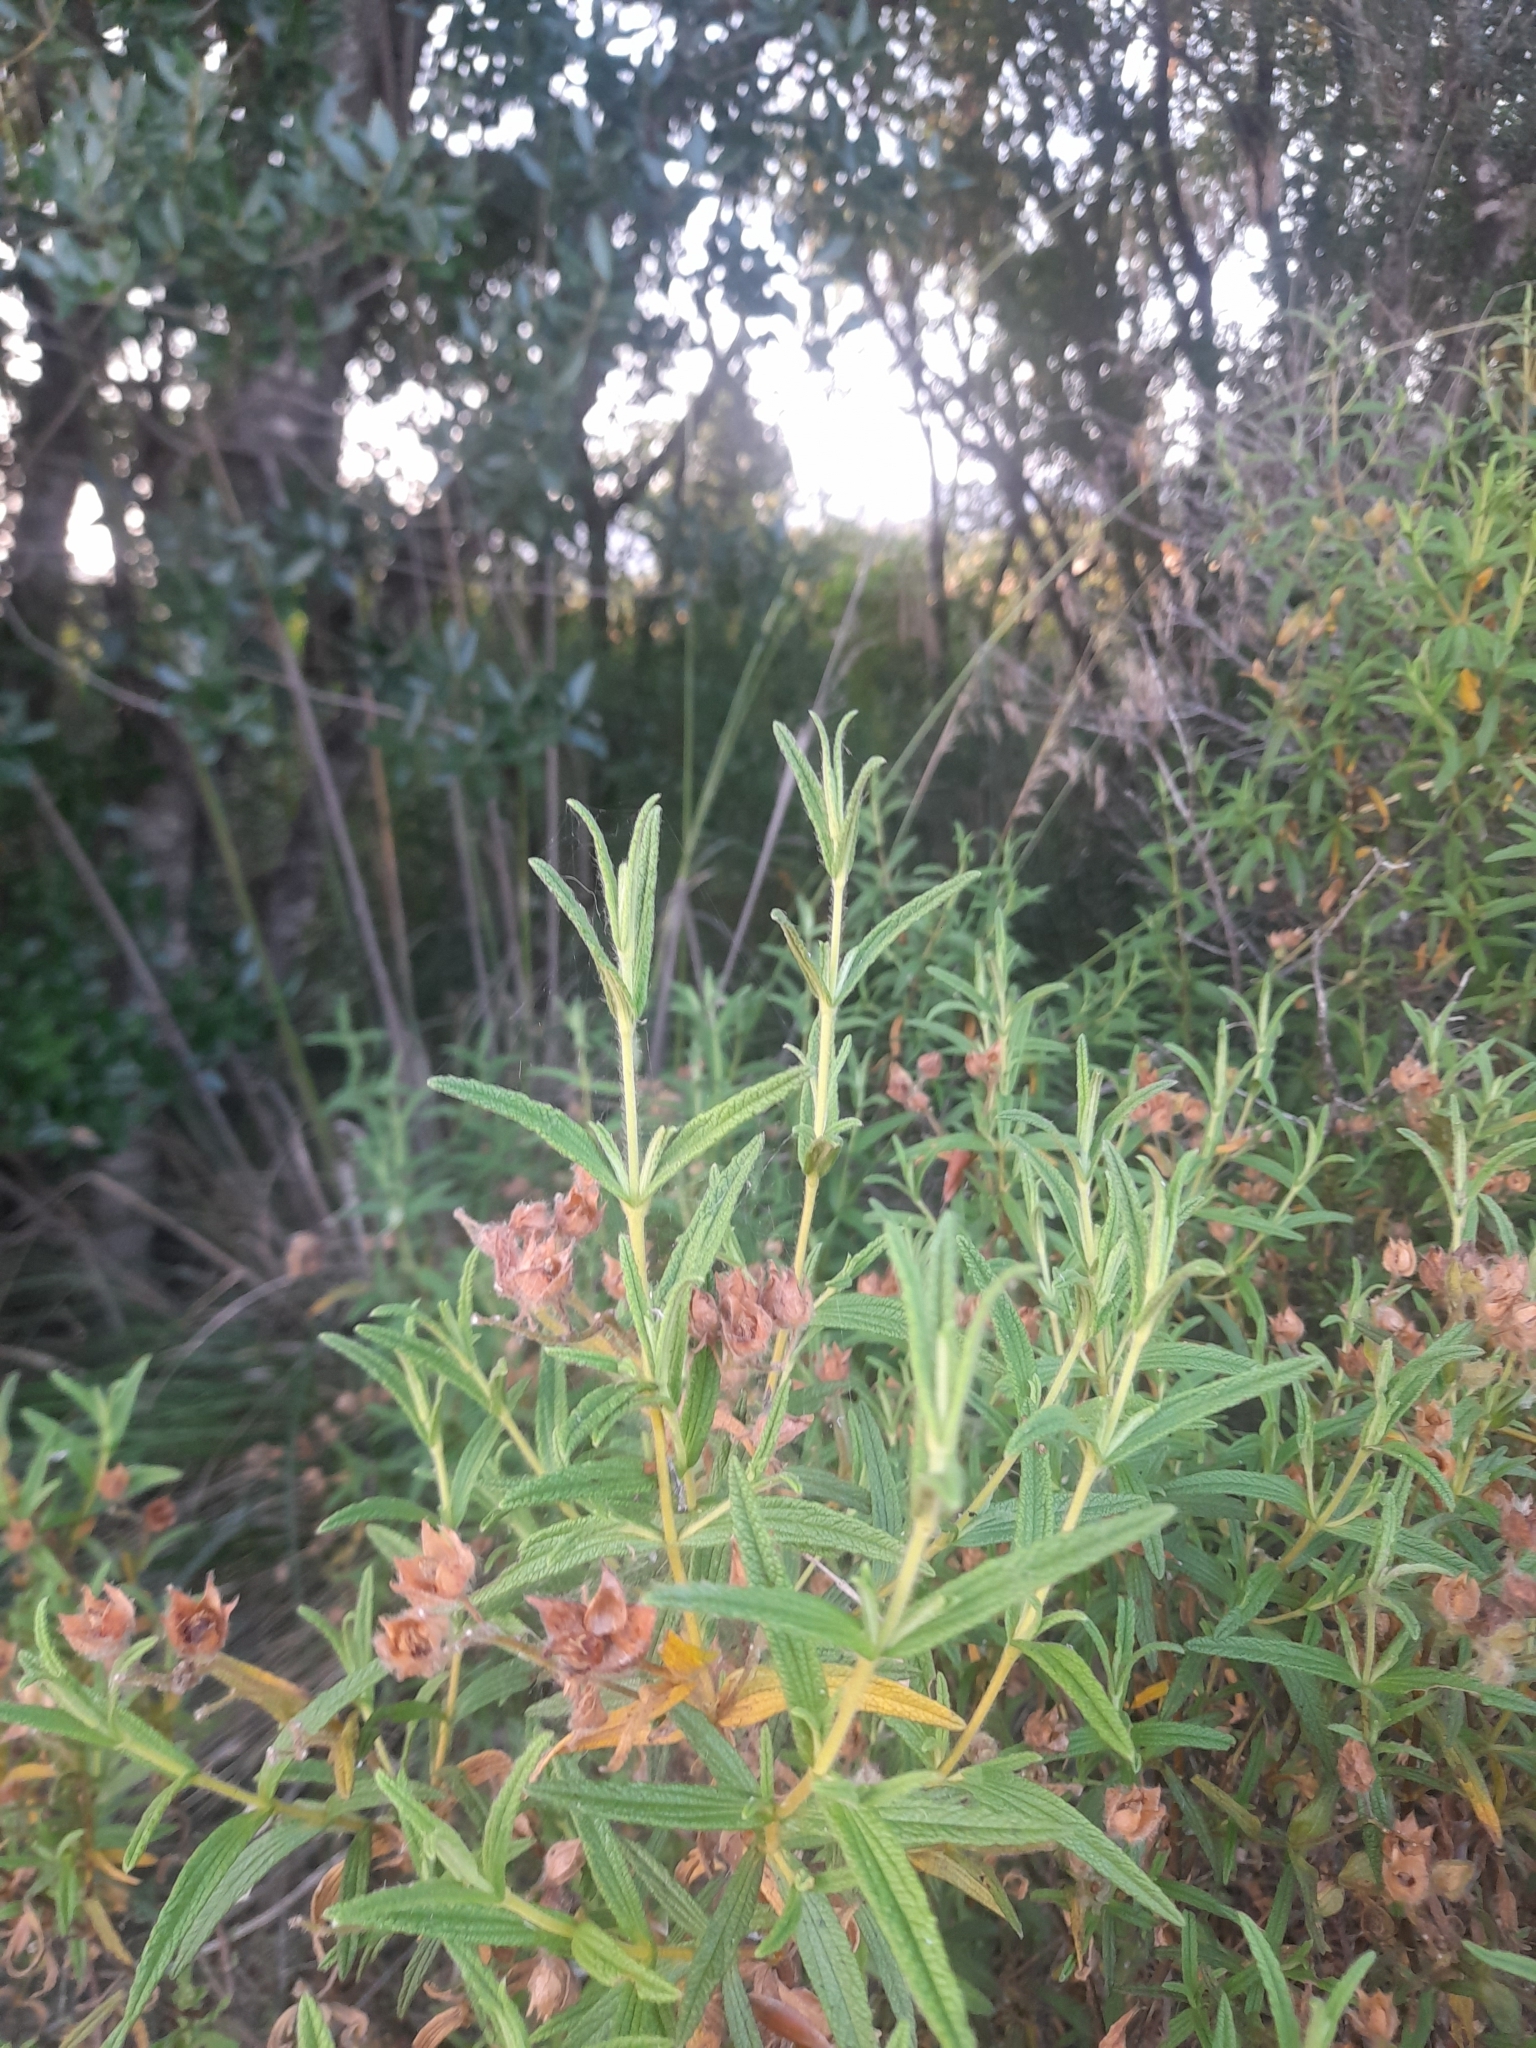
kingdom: Plantae
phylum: Tracheophyta
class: Magnoliopsida
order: Malvales
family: Cistaceae
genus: Cistus
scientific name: Cistus monspeliensis
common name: Montpelier cistus
